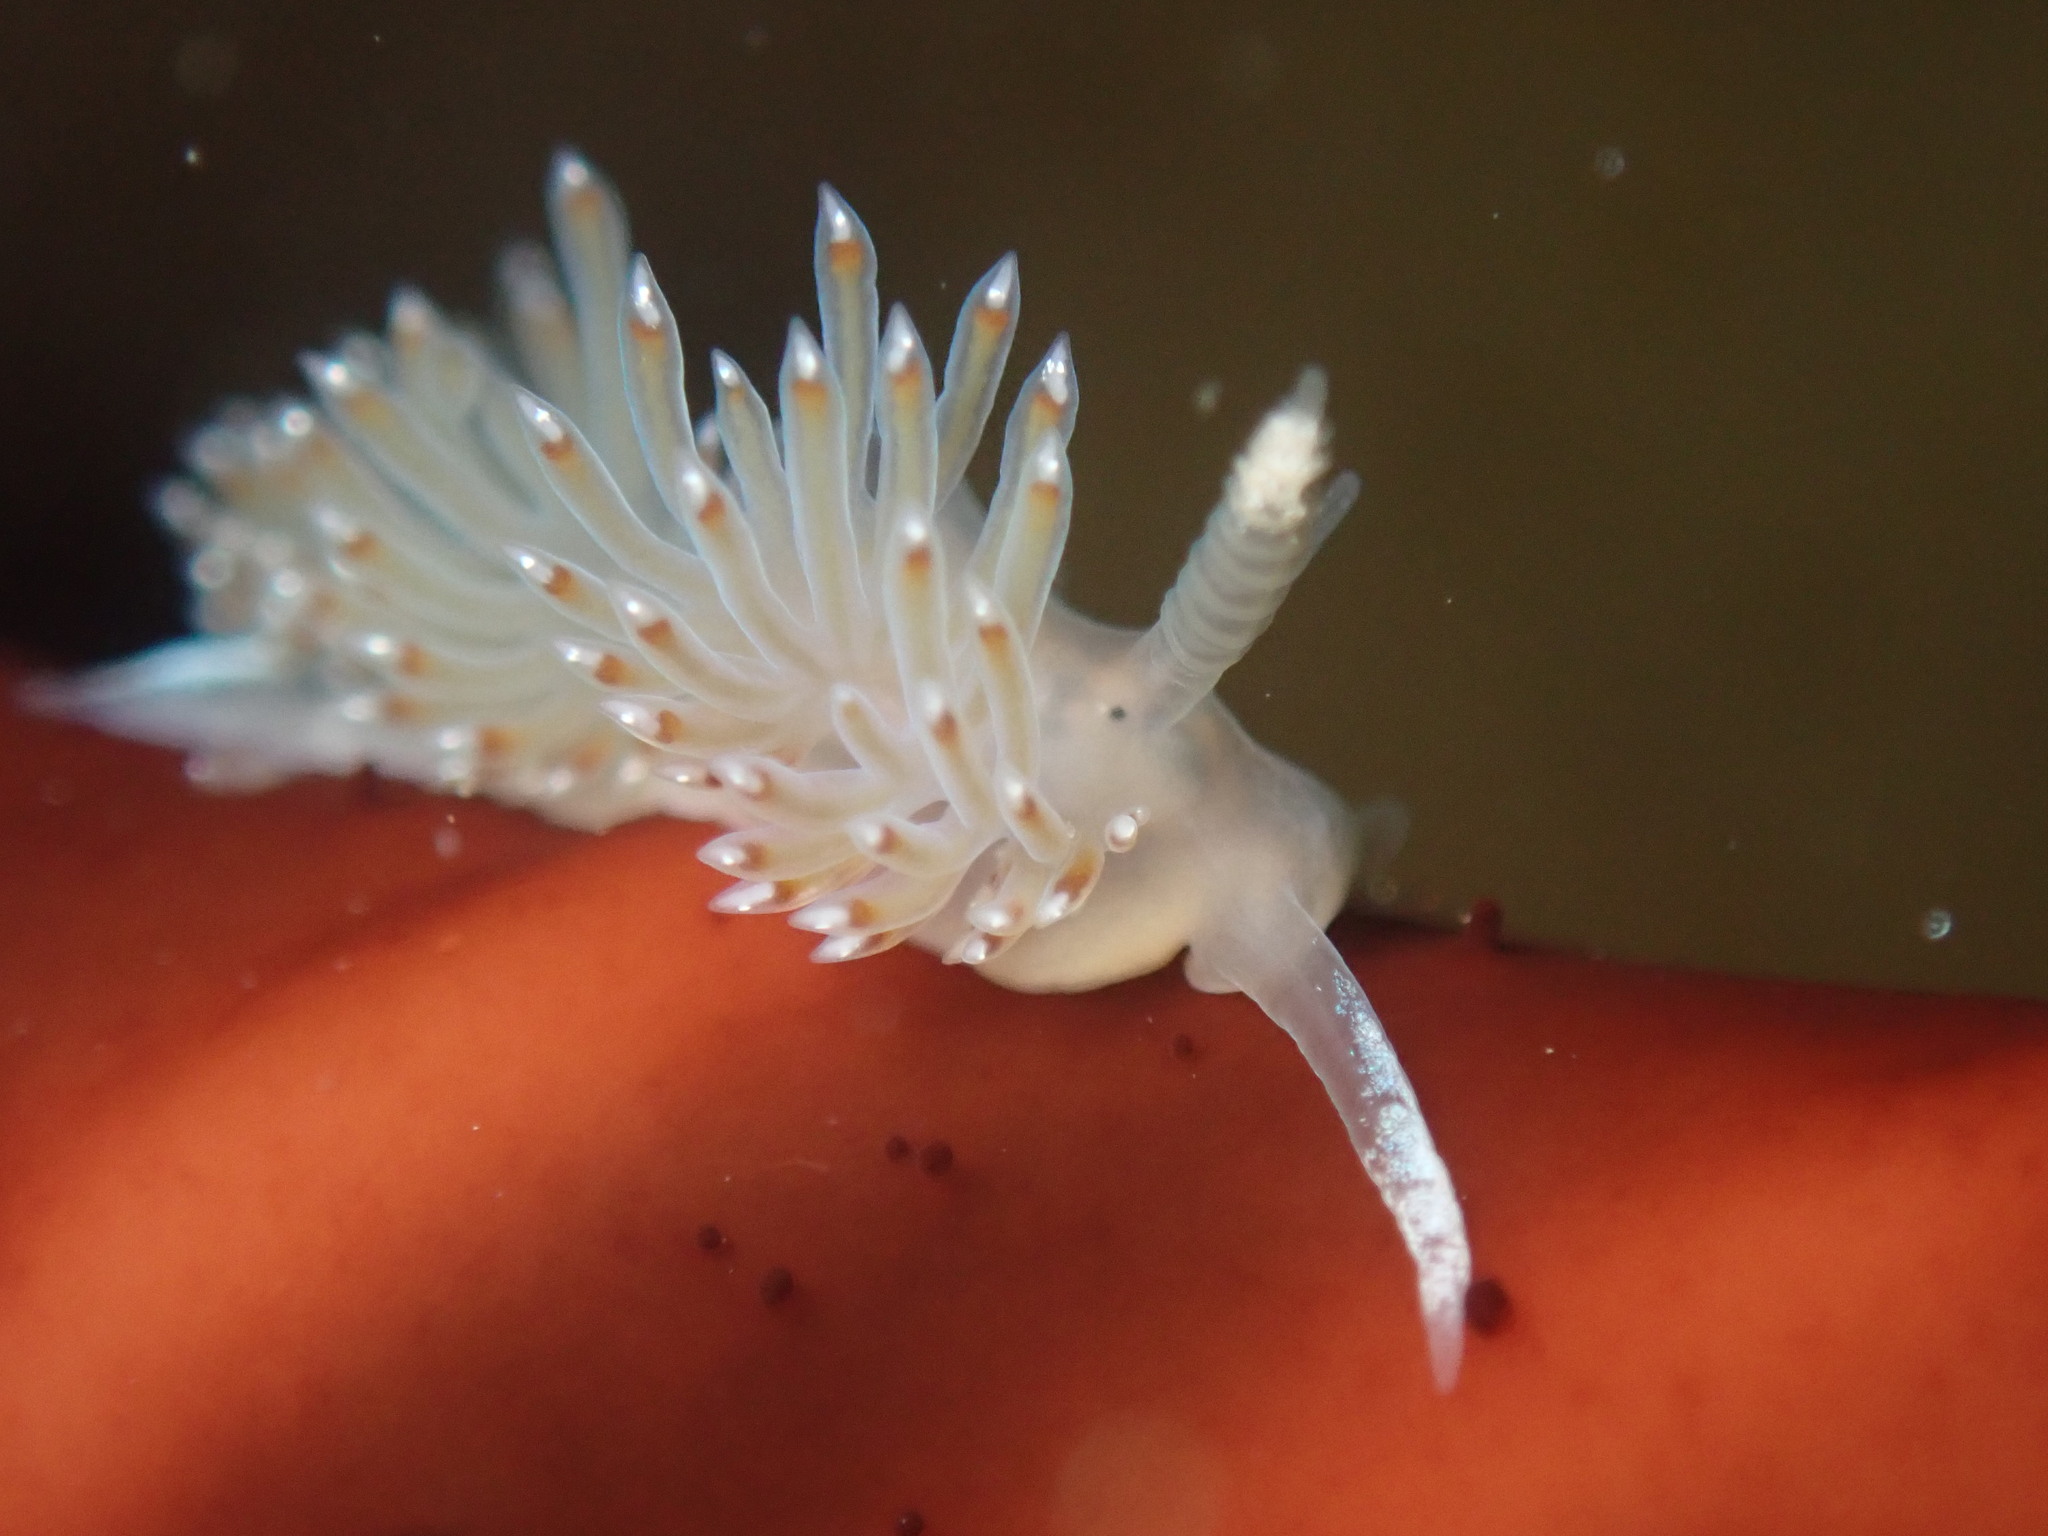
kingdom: Animalia
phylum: Mollusca
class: Gastropoda
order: Nudibranchia
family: Apataidae
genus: Apata
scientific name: Apata pricei
